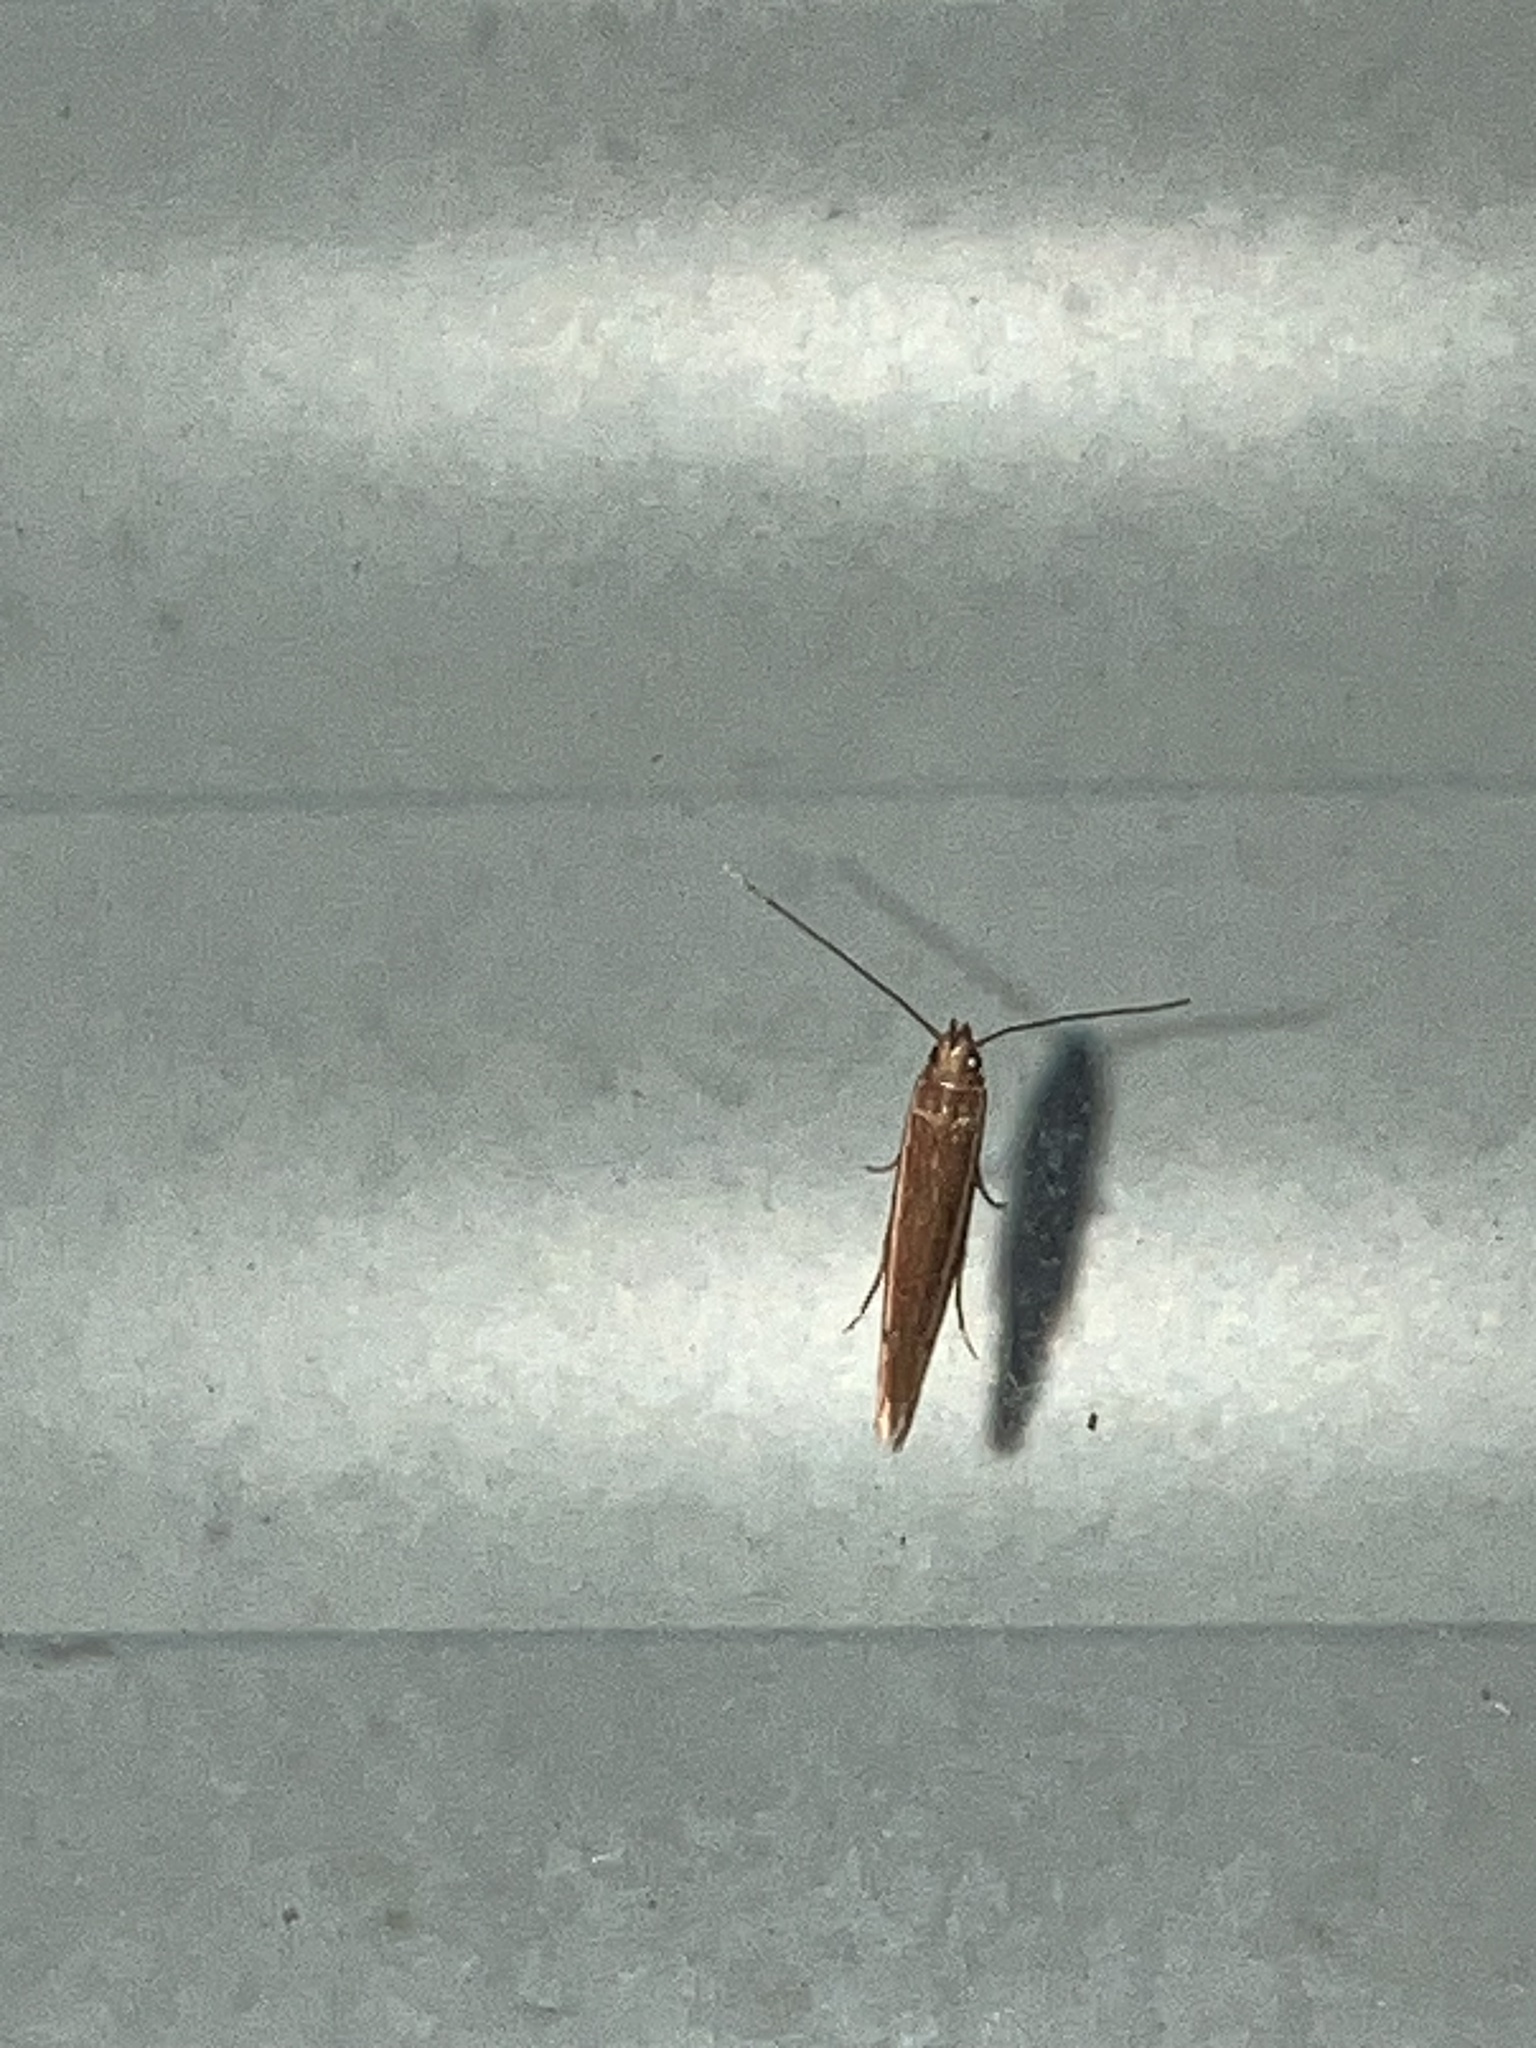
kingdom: Animalia
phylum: Arthropoda
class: Insecta
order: Lepidoptera
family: Batrachedridae
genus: Batrachedra
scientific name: Batrachedra busiris
